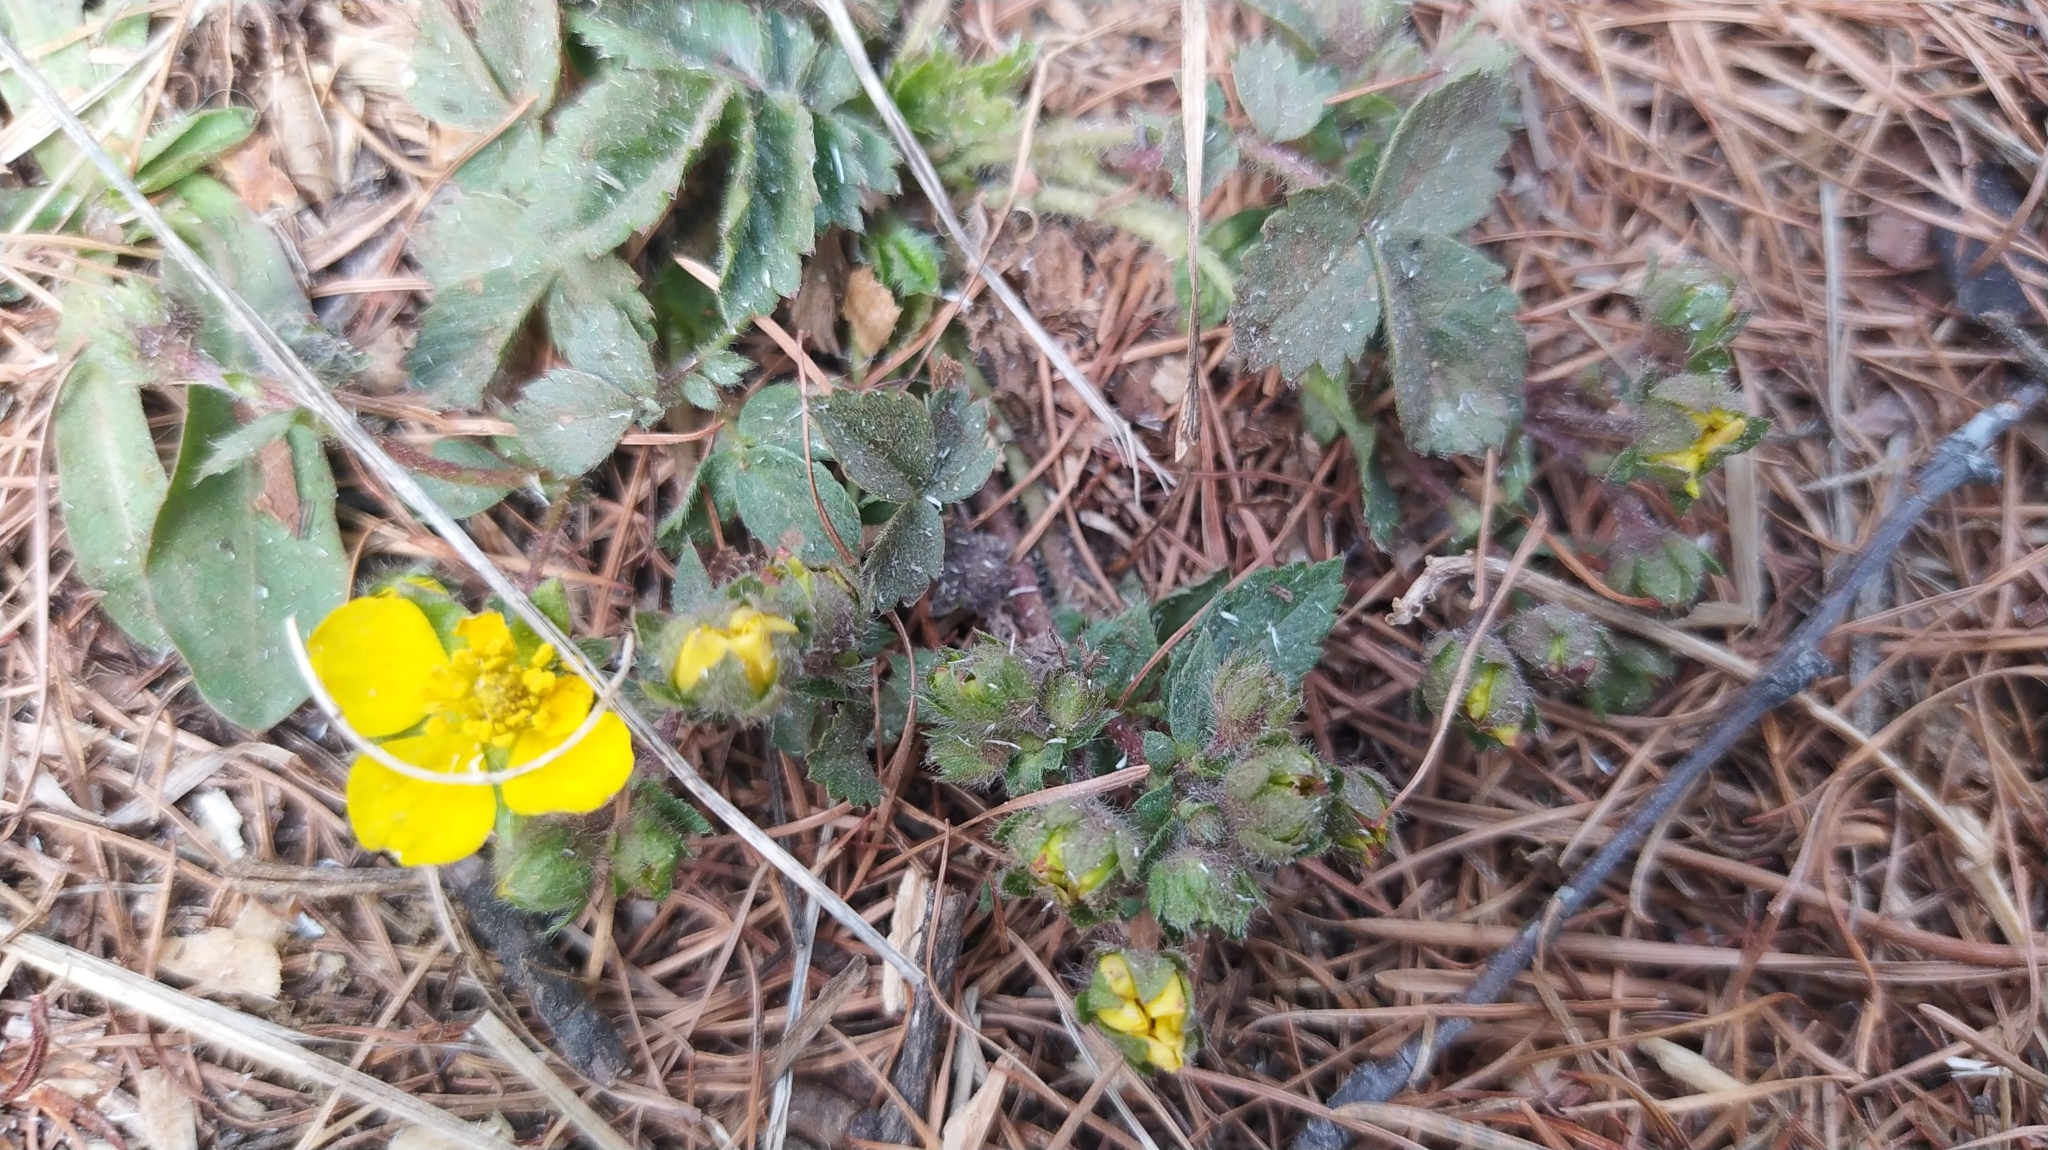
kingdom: Plantae
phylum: Tracheophyta
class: Magnoliopsida
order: Rosales
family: Rosaceae
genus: Potentilla
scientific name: Potentilla fragarioides
